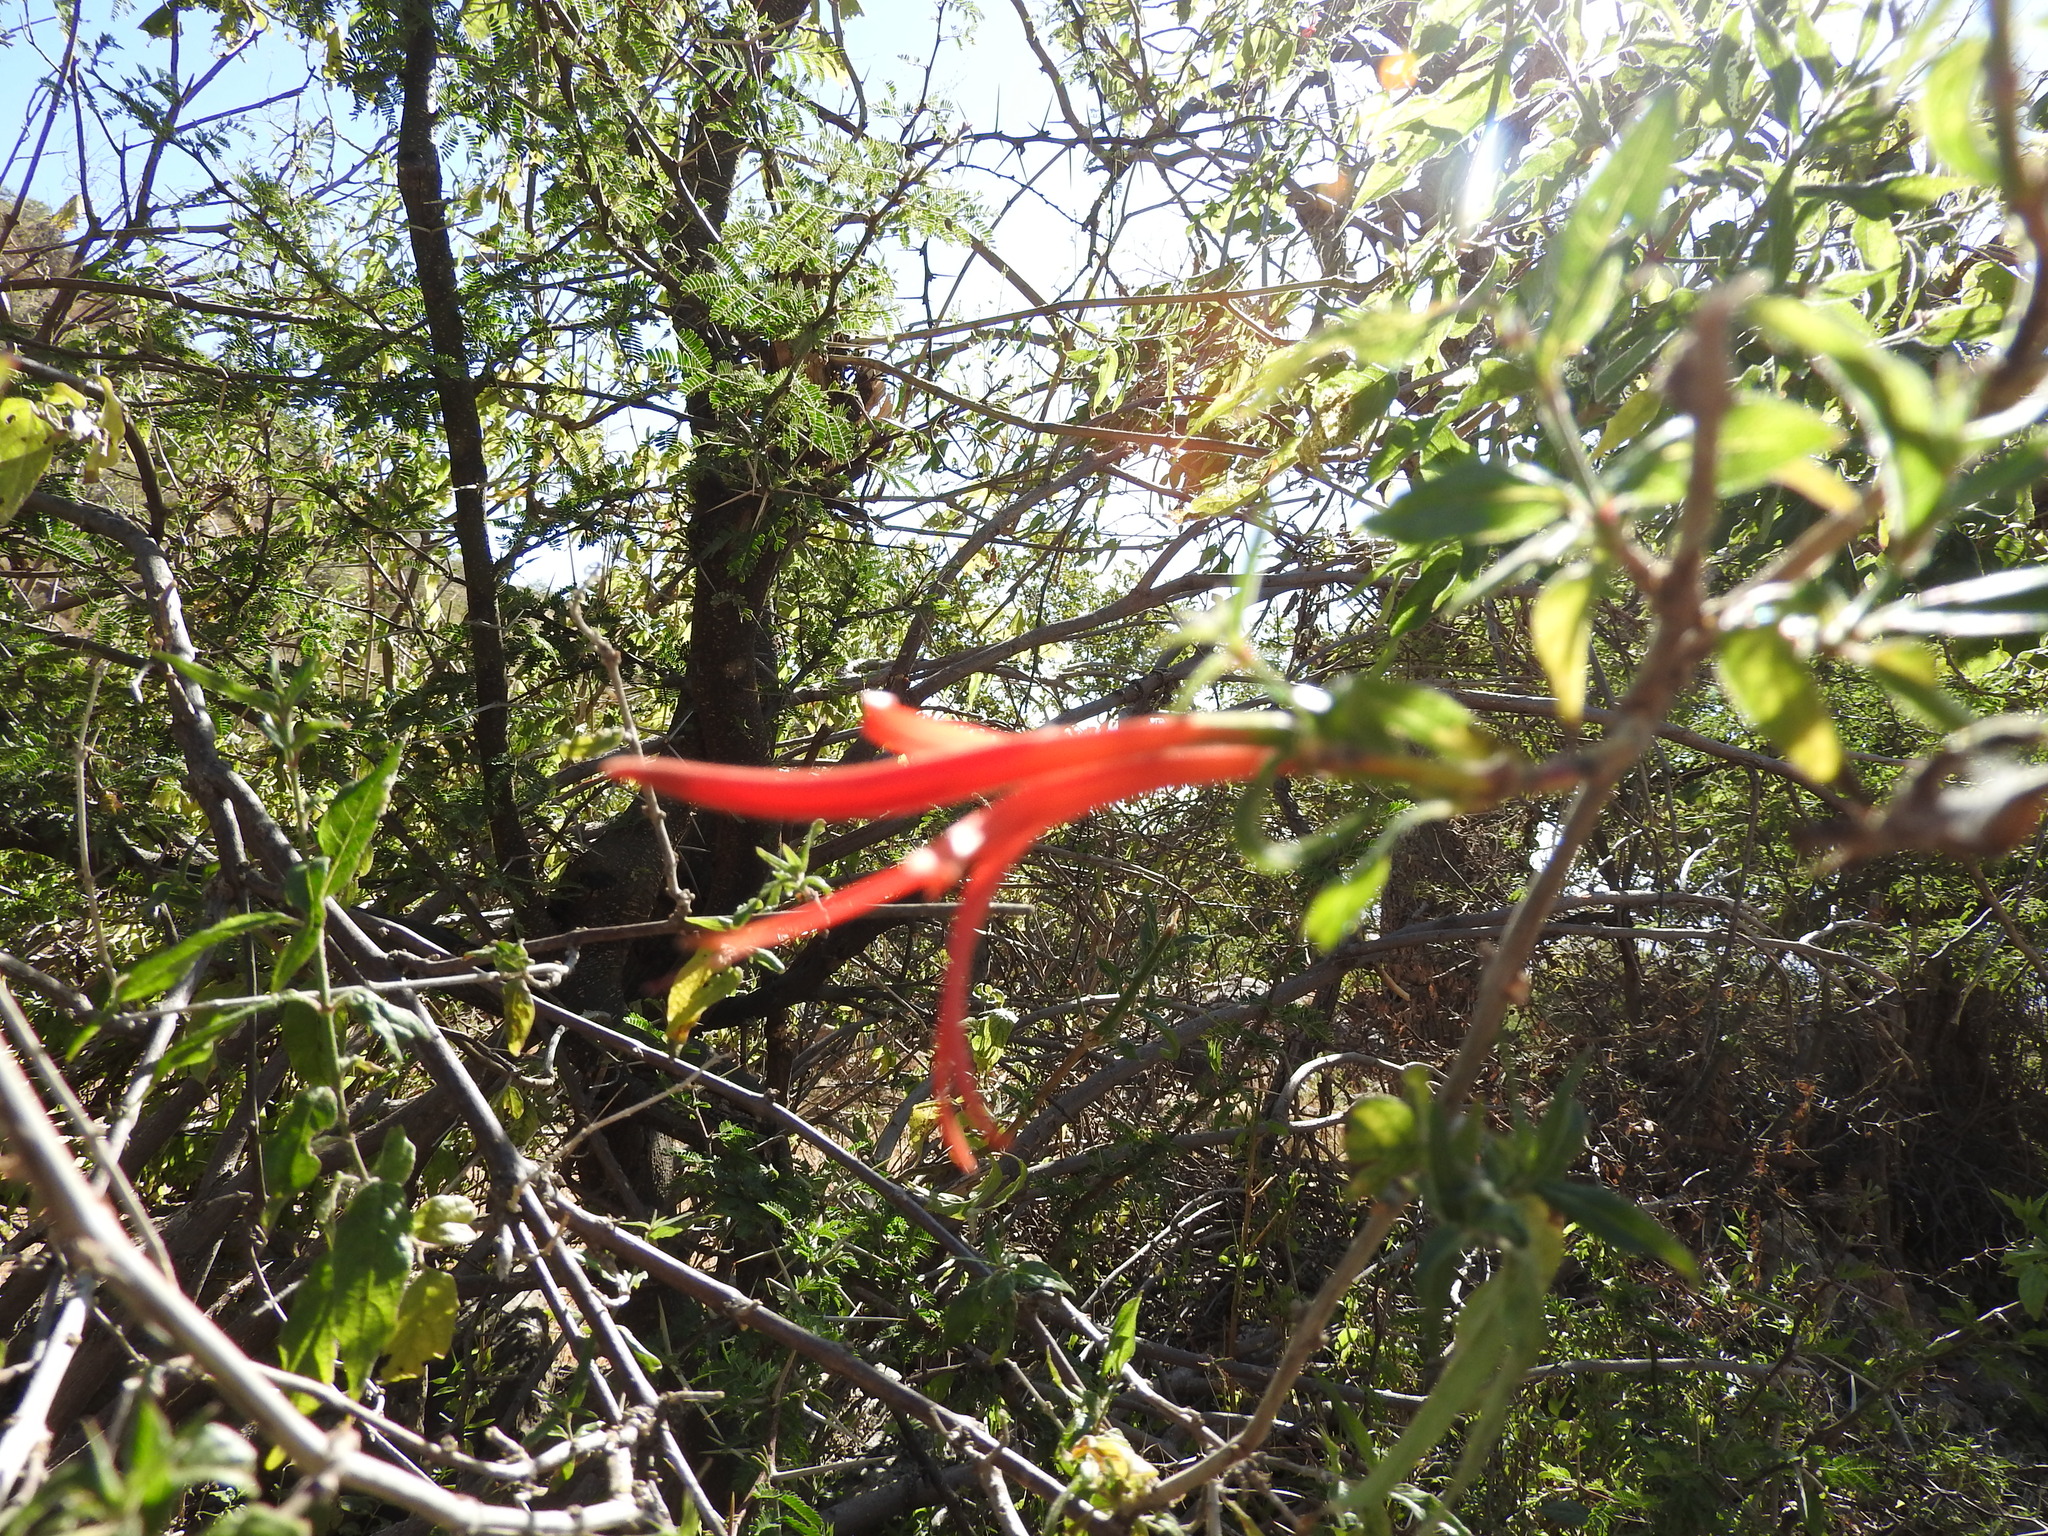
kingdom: Plantae
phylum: Tracheophyta
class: Magnoliopsida
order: Asterales
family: Campanulaceae
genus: Lobelia
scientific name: Lobelia laxiflora
